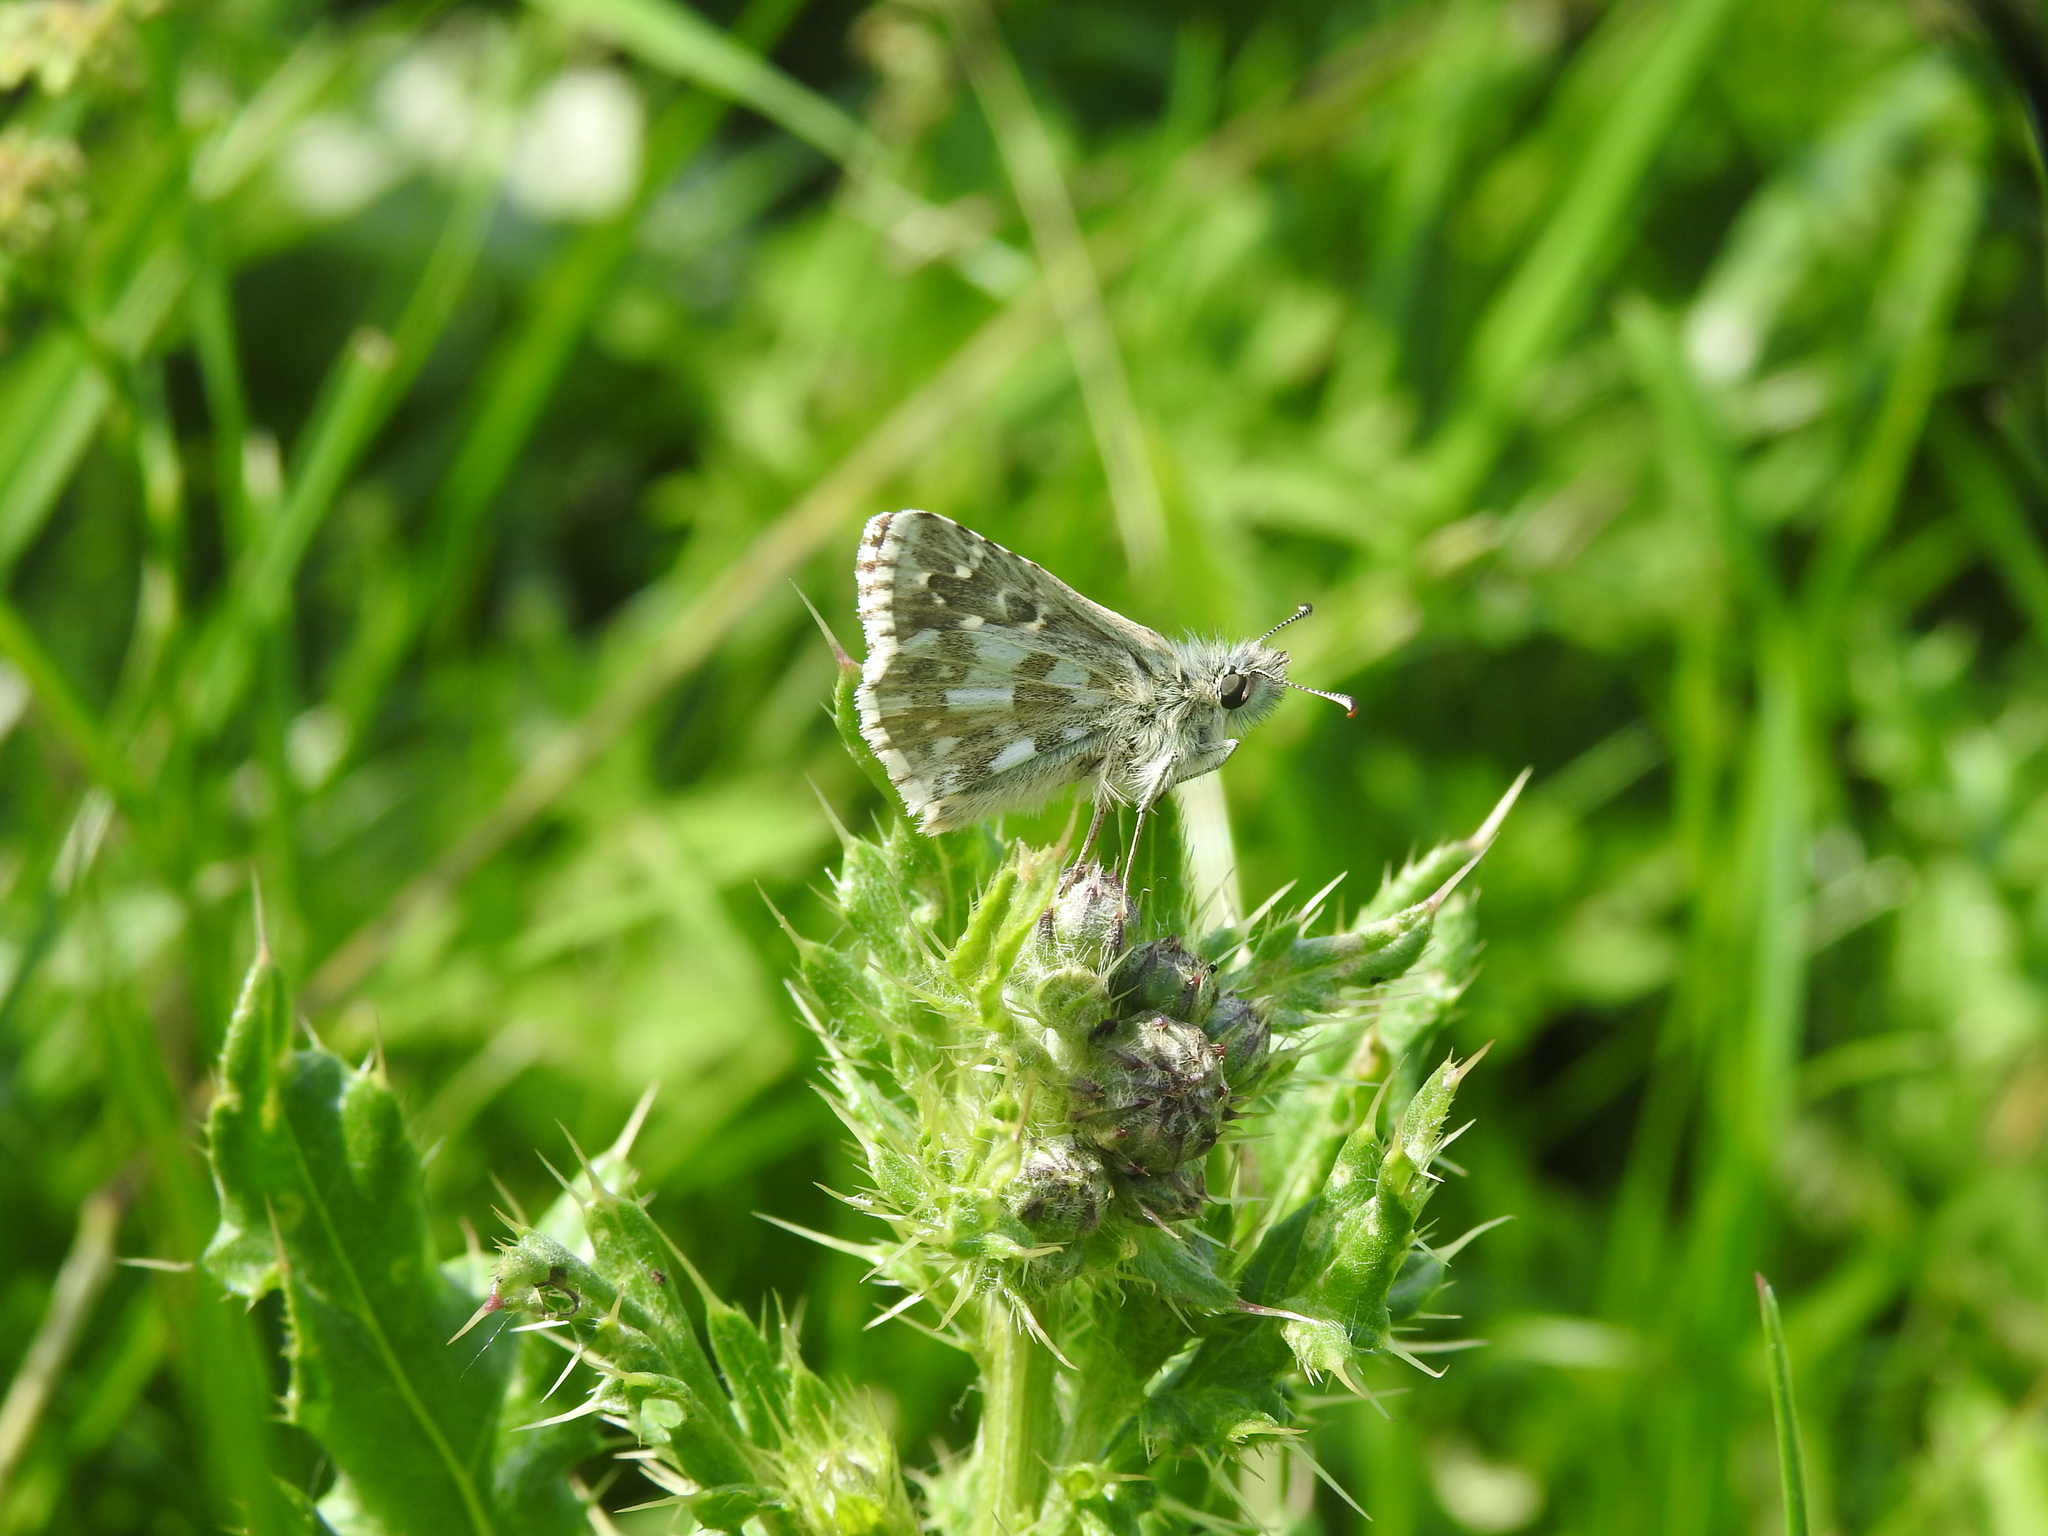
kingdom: Animalia
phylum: Arthropoda
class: Insecta
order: Lepidoptera
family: Hesperiidae
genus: Pyrgus
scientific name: Pyrgus armoricanus
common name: Oberthür's grizzled skipper
